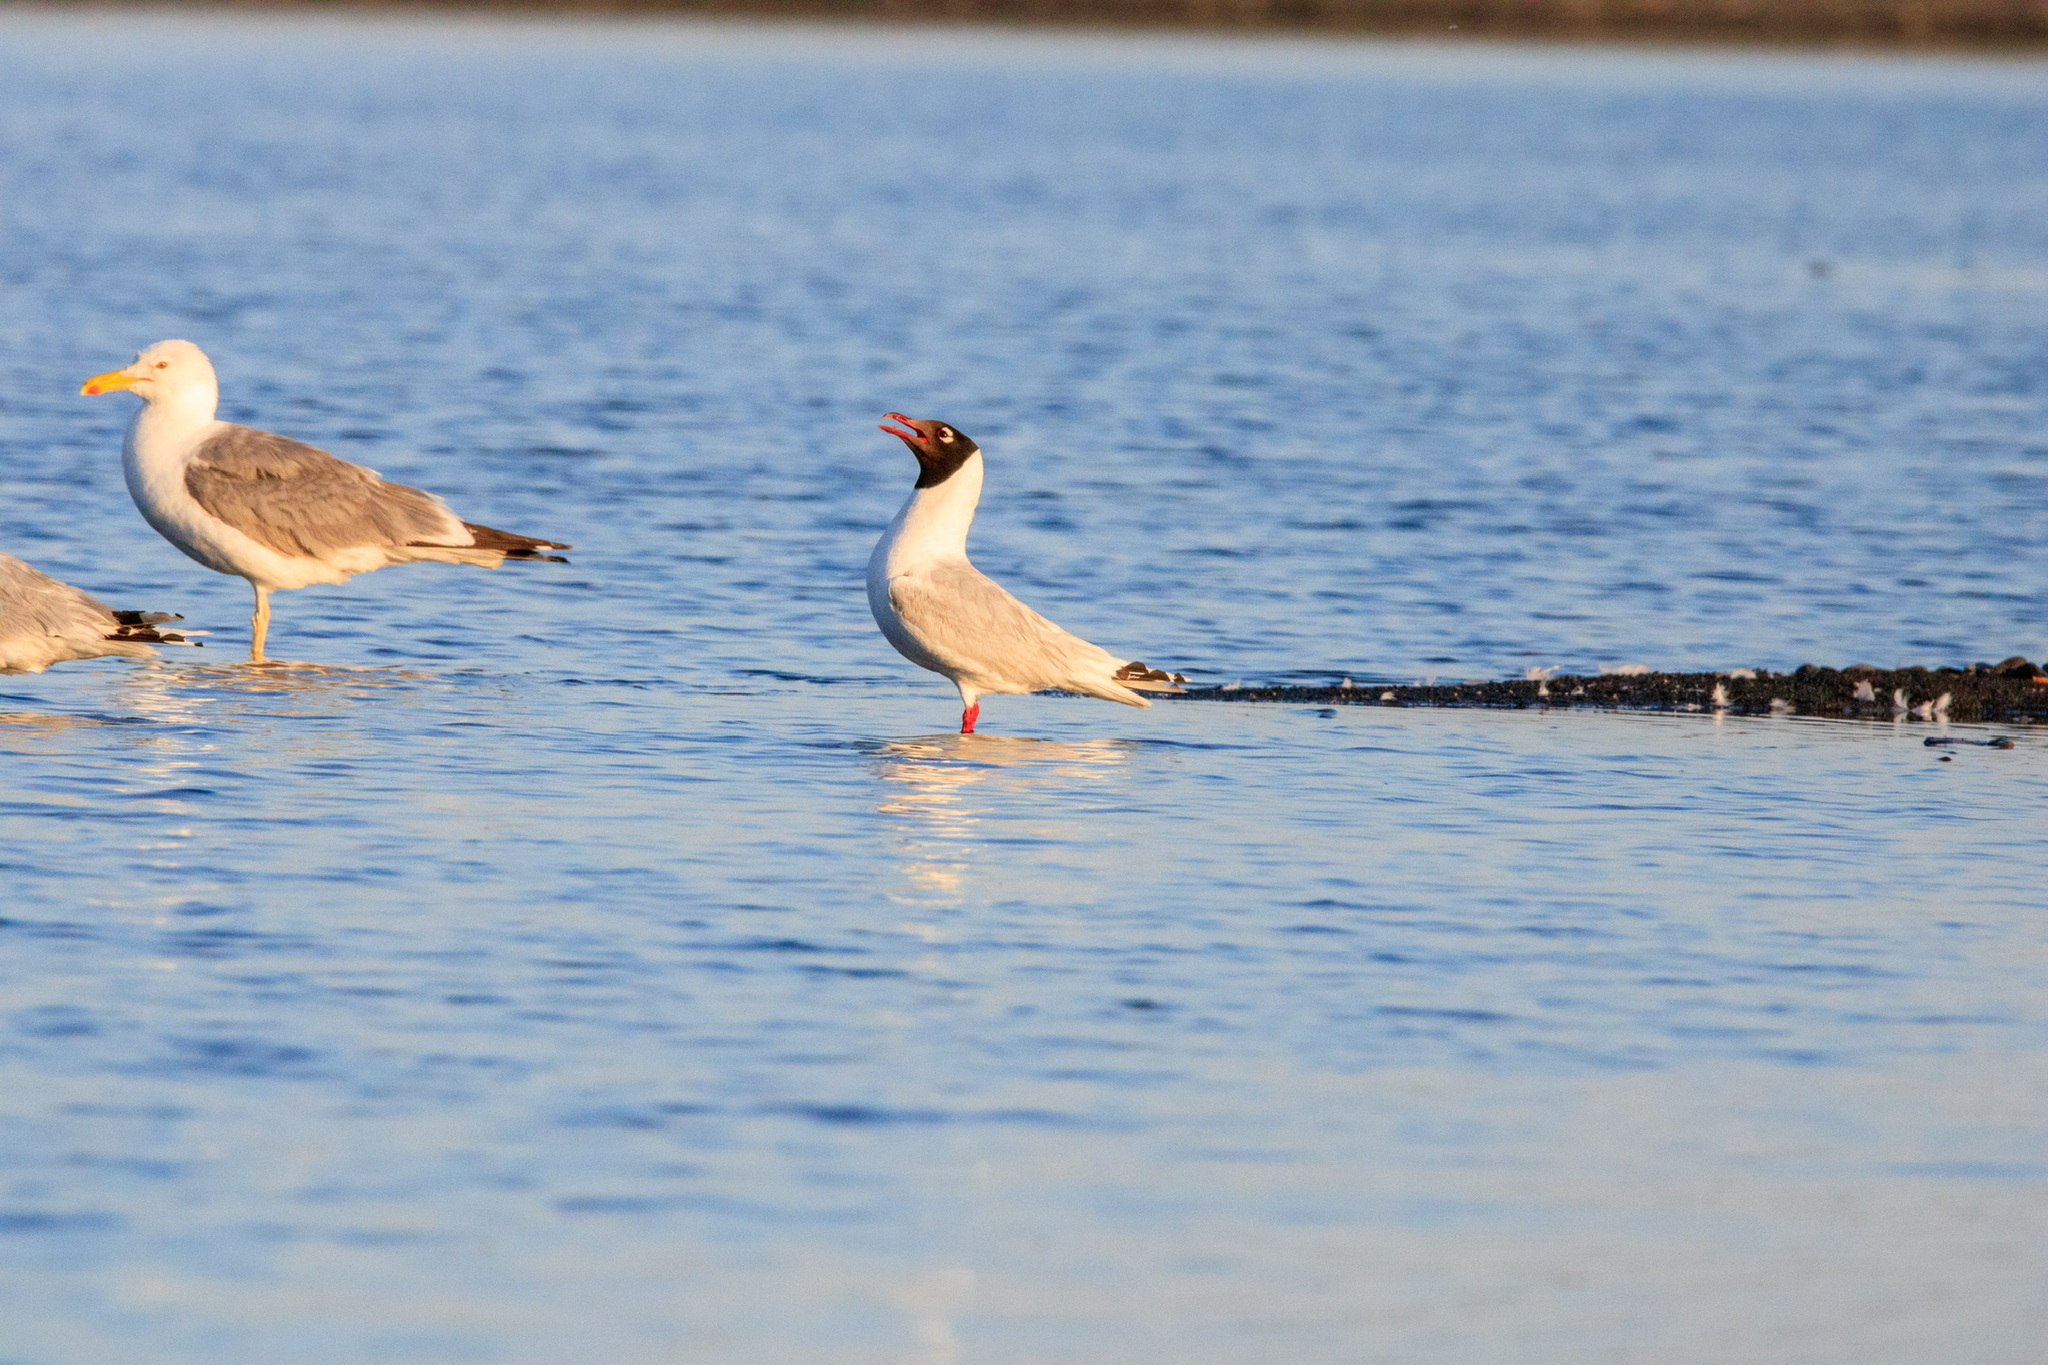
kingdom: Animalia
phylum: Chordata
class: Aves
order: Charadriiformes
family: Laridae
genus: Ichthyaetus
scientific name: Ichthyaetus relictus
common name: Relict gull
